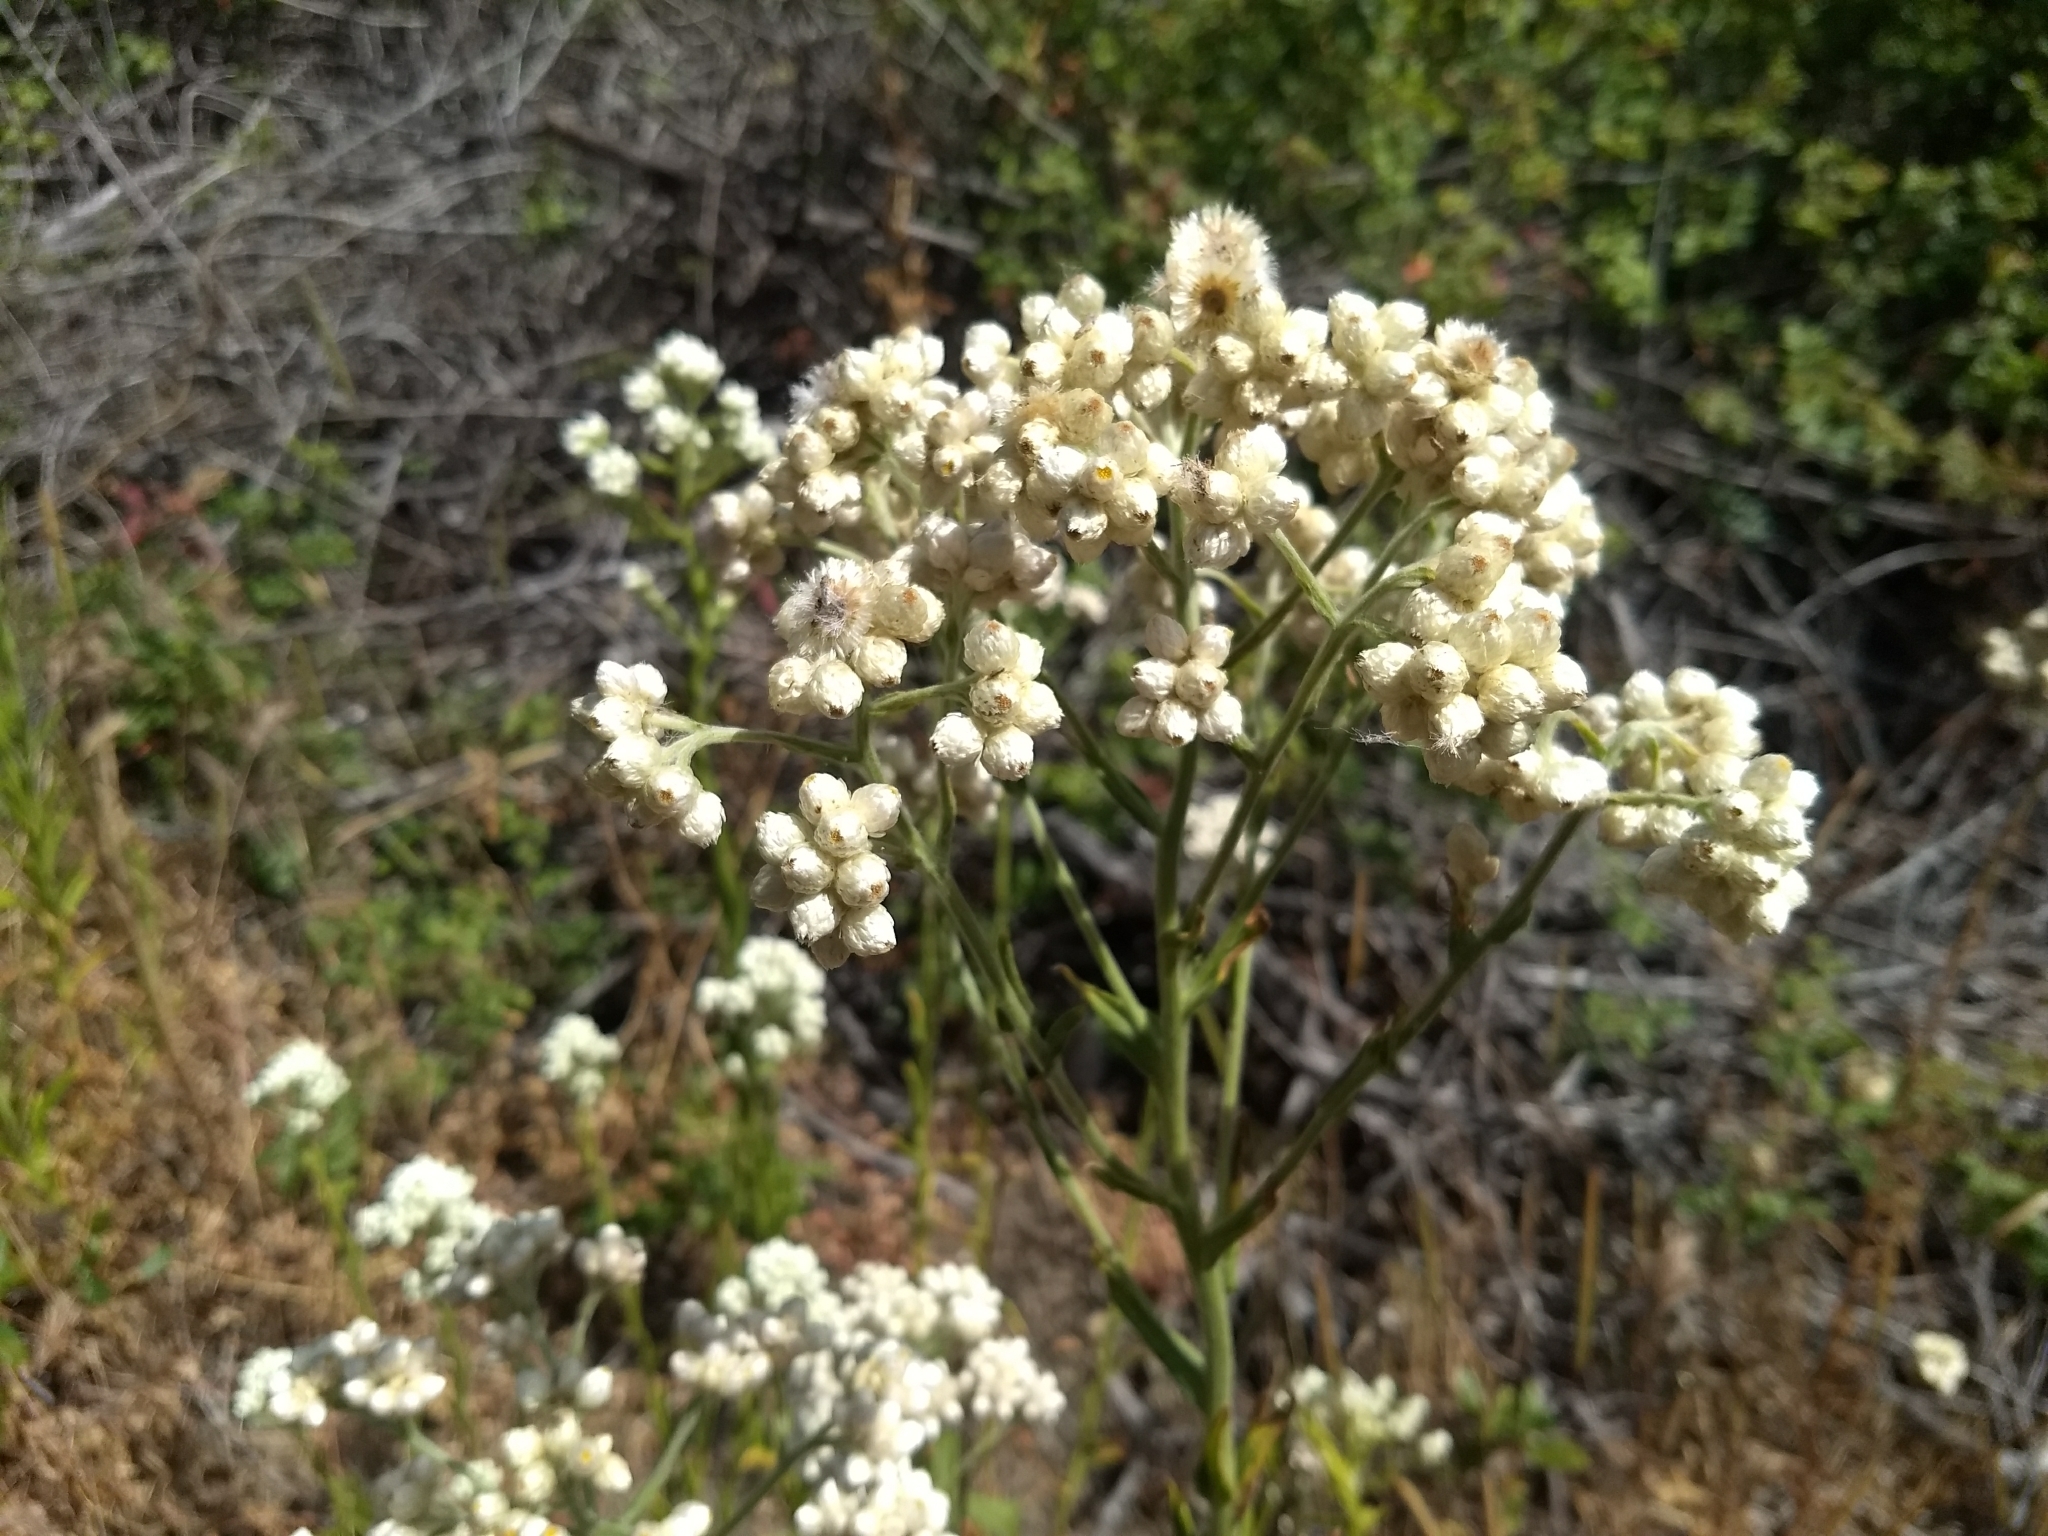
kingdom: Plantae
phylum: Tracheophyta
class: Magnoliopsida
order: Asterales
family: Asteraceae
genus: Pseudognaphalium
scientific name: Pseudognaphalium californicum
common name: California rabbit-tobacco
